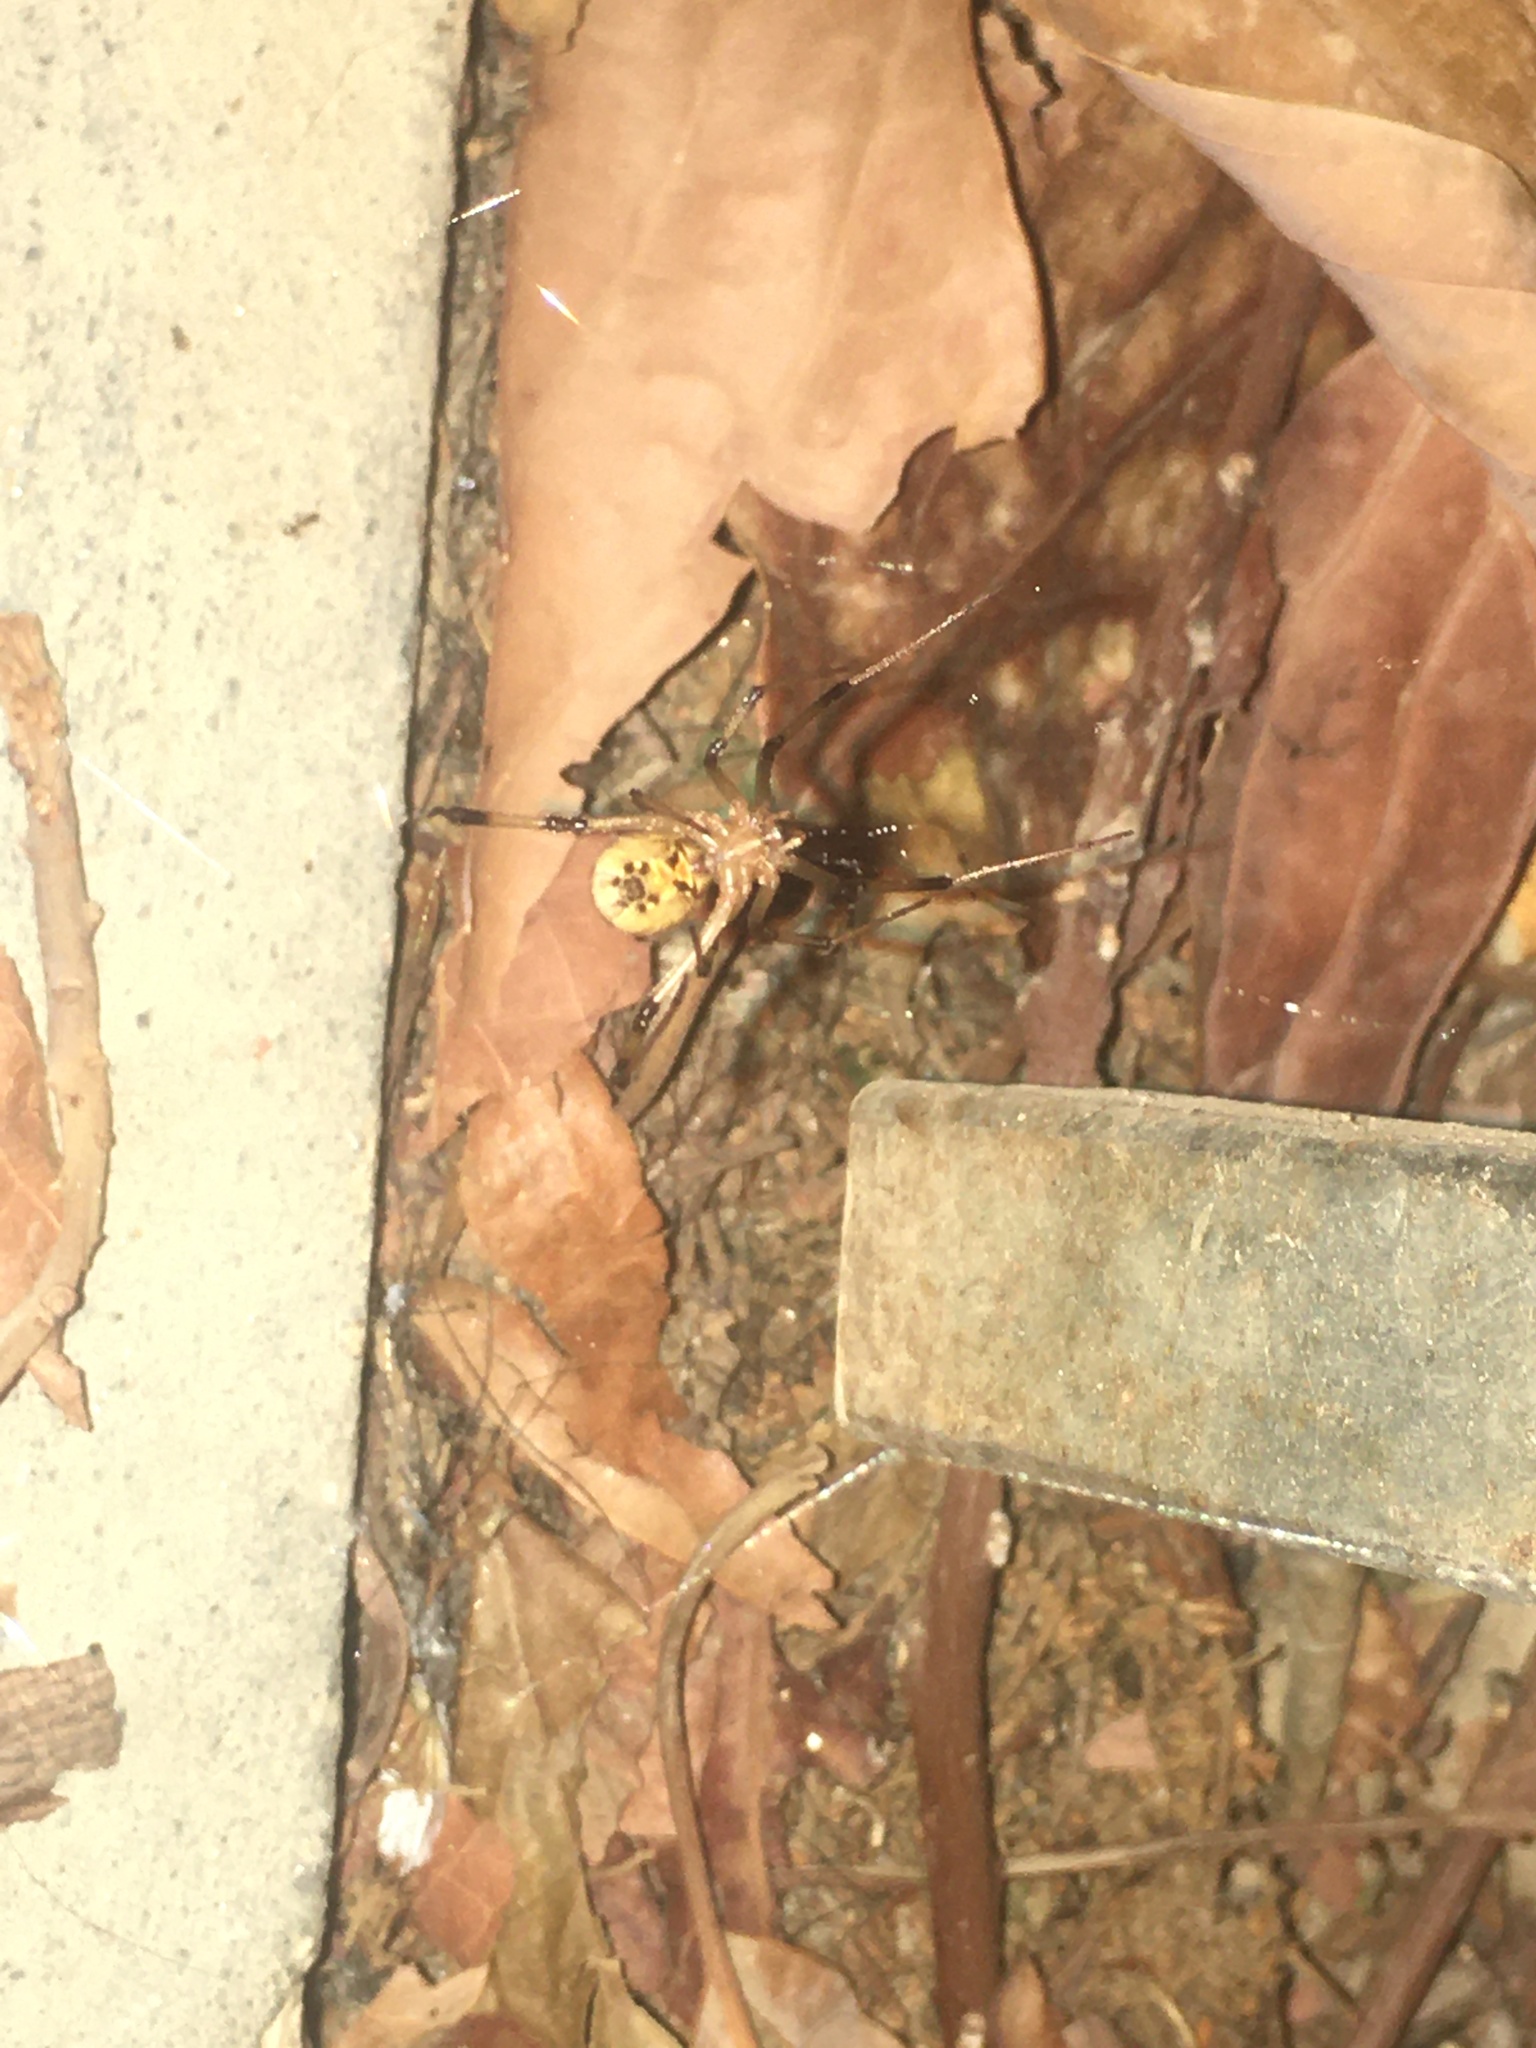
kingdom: Animalia
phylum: Arthropoda
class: Arachnida
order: Araneae
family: Theridiidae
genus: Latrodectus
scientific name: Latrodectus geometricus
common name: Brown widow spider
